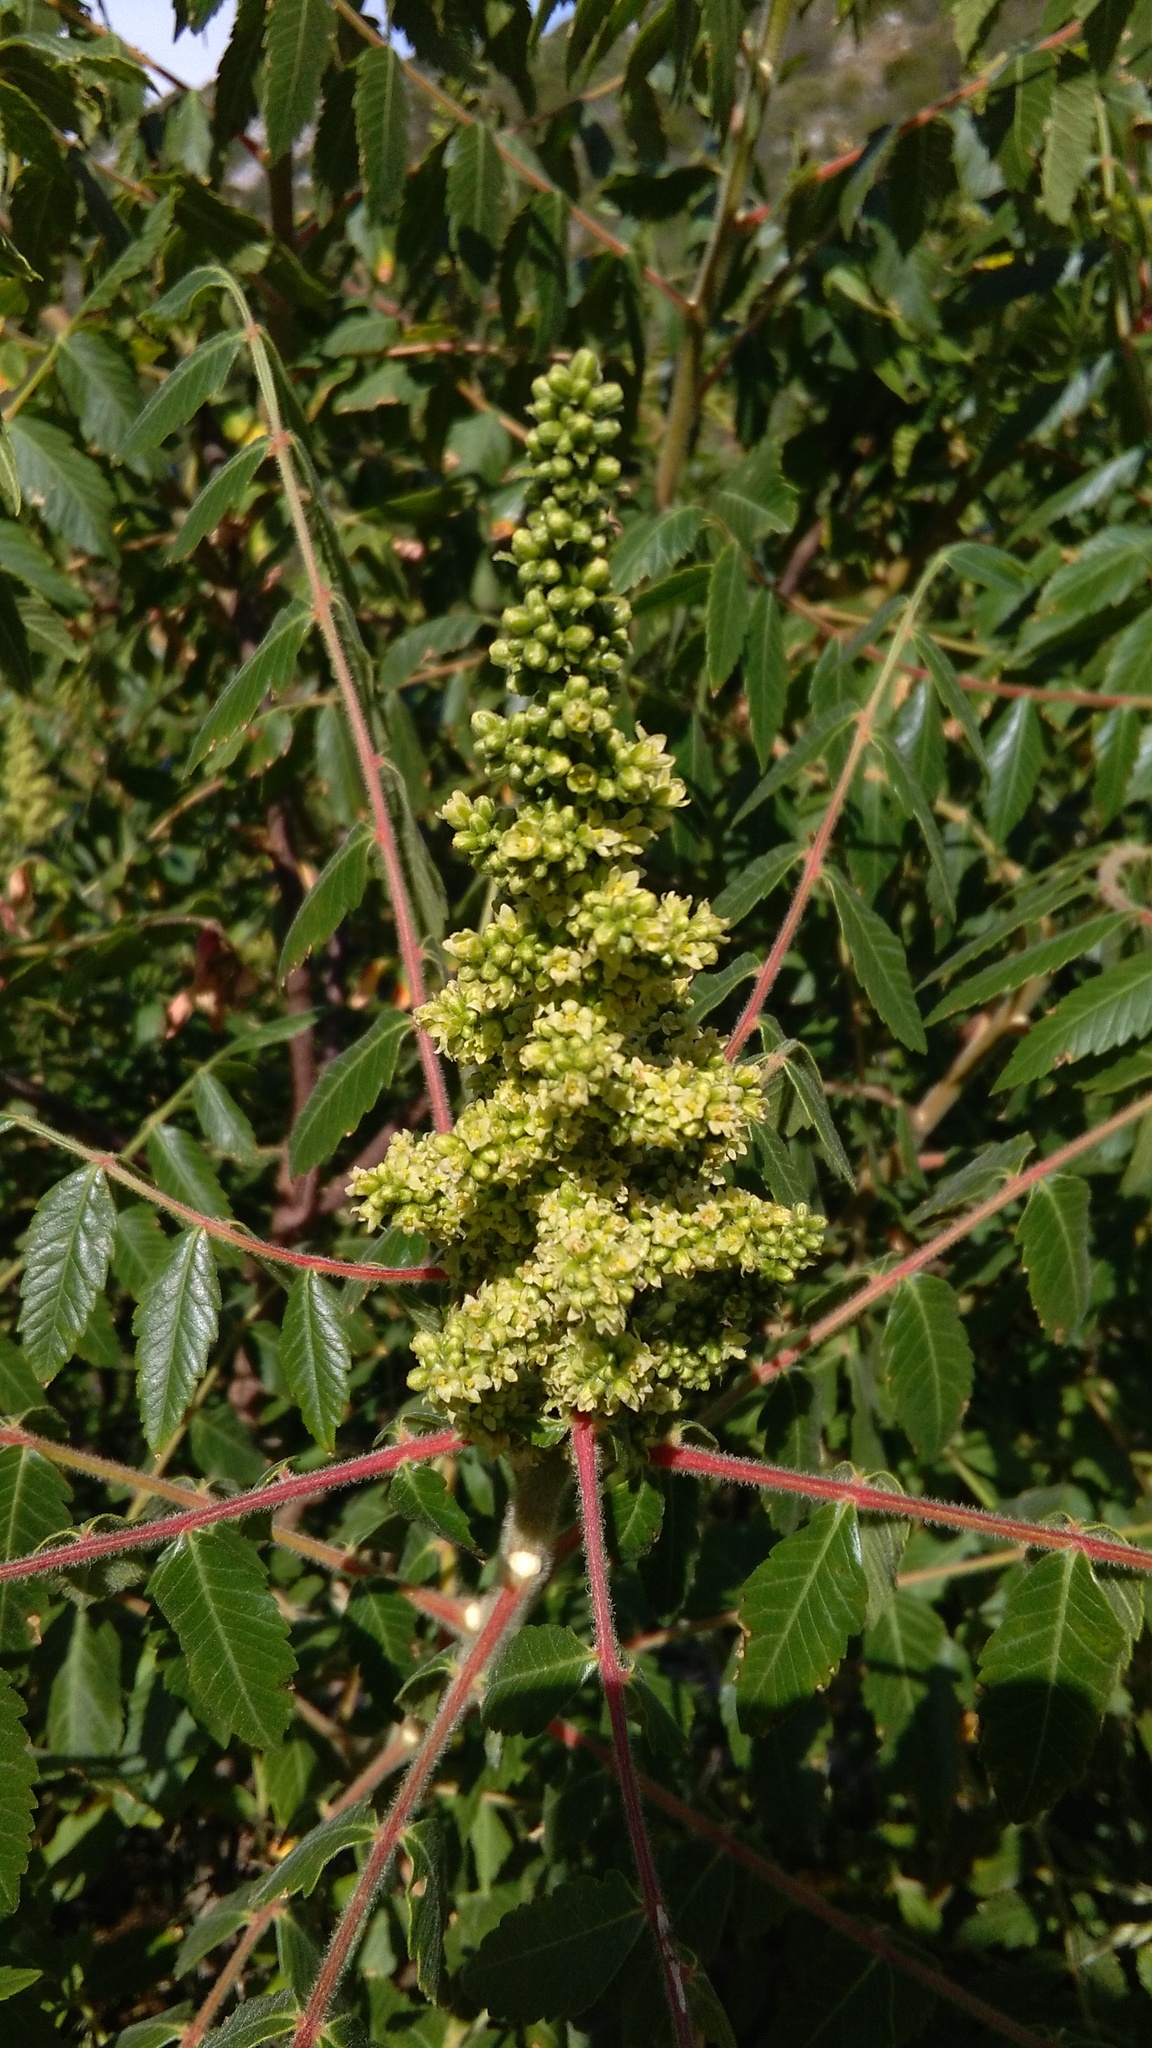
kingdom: Plantae
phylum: Tracheophyta
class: Magnoliopsida
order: Sapindales
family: Anacardiaceae
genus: Rhus
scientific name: Rhus coriaria
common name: Tanner's sumach
